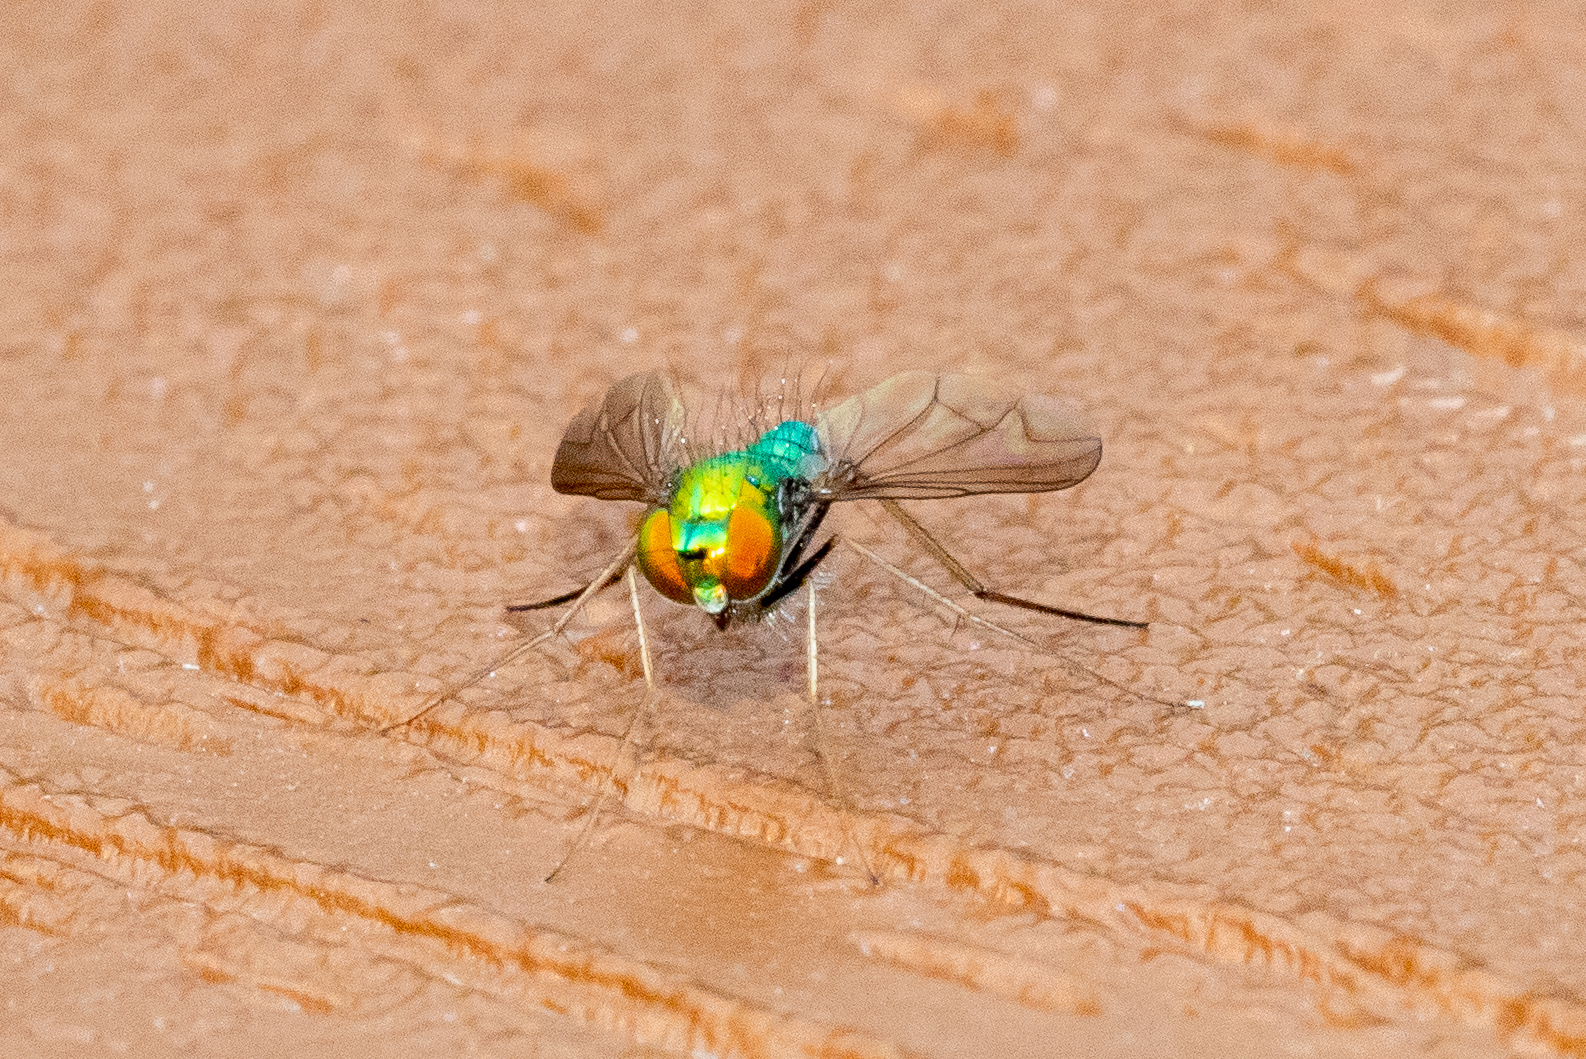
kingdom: Animalia
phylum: Arthropoda
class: Insecta
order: Diptera
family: Dolichopodidae
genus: Condylostylus
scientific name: Condylostylus comatus
